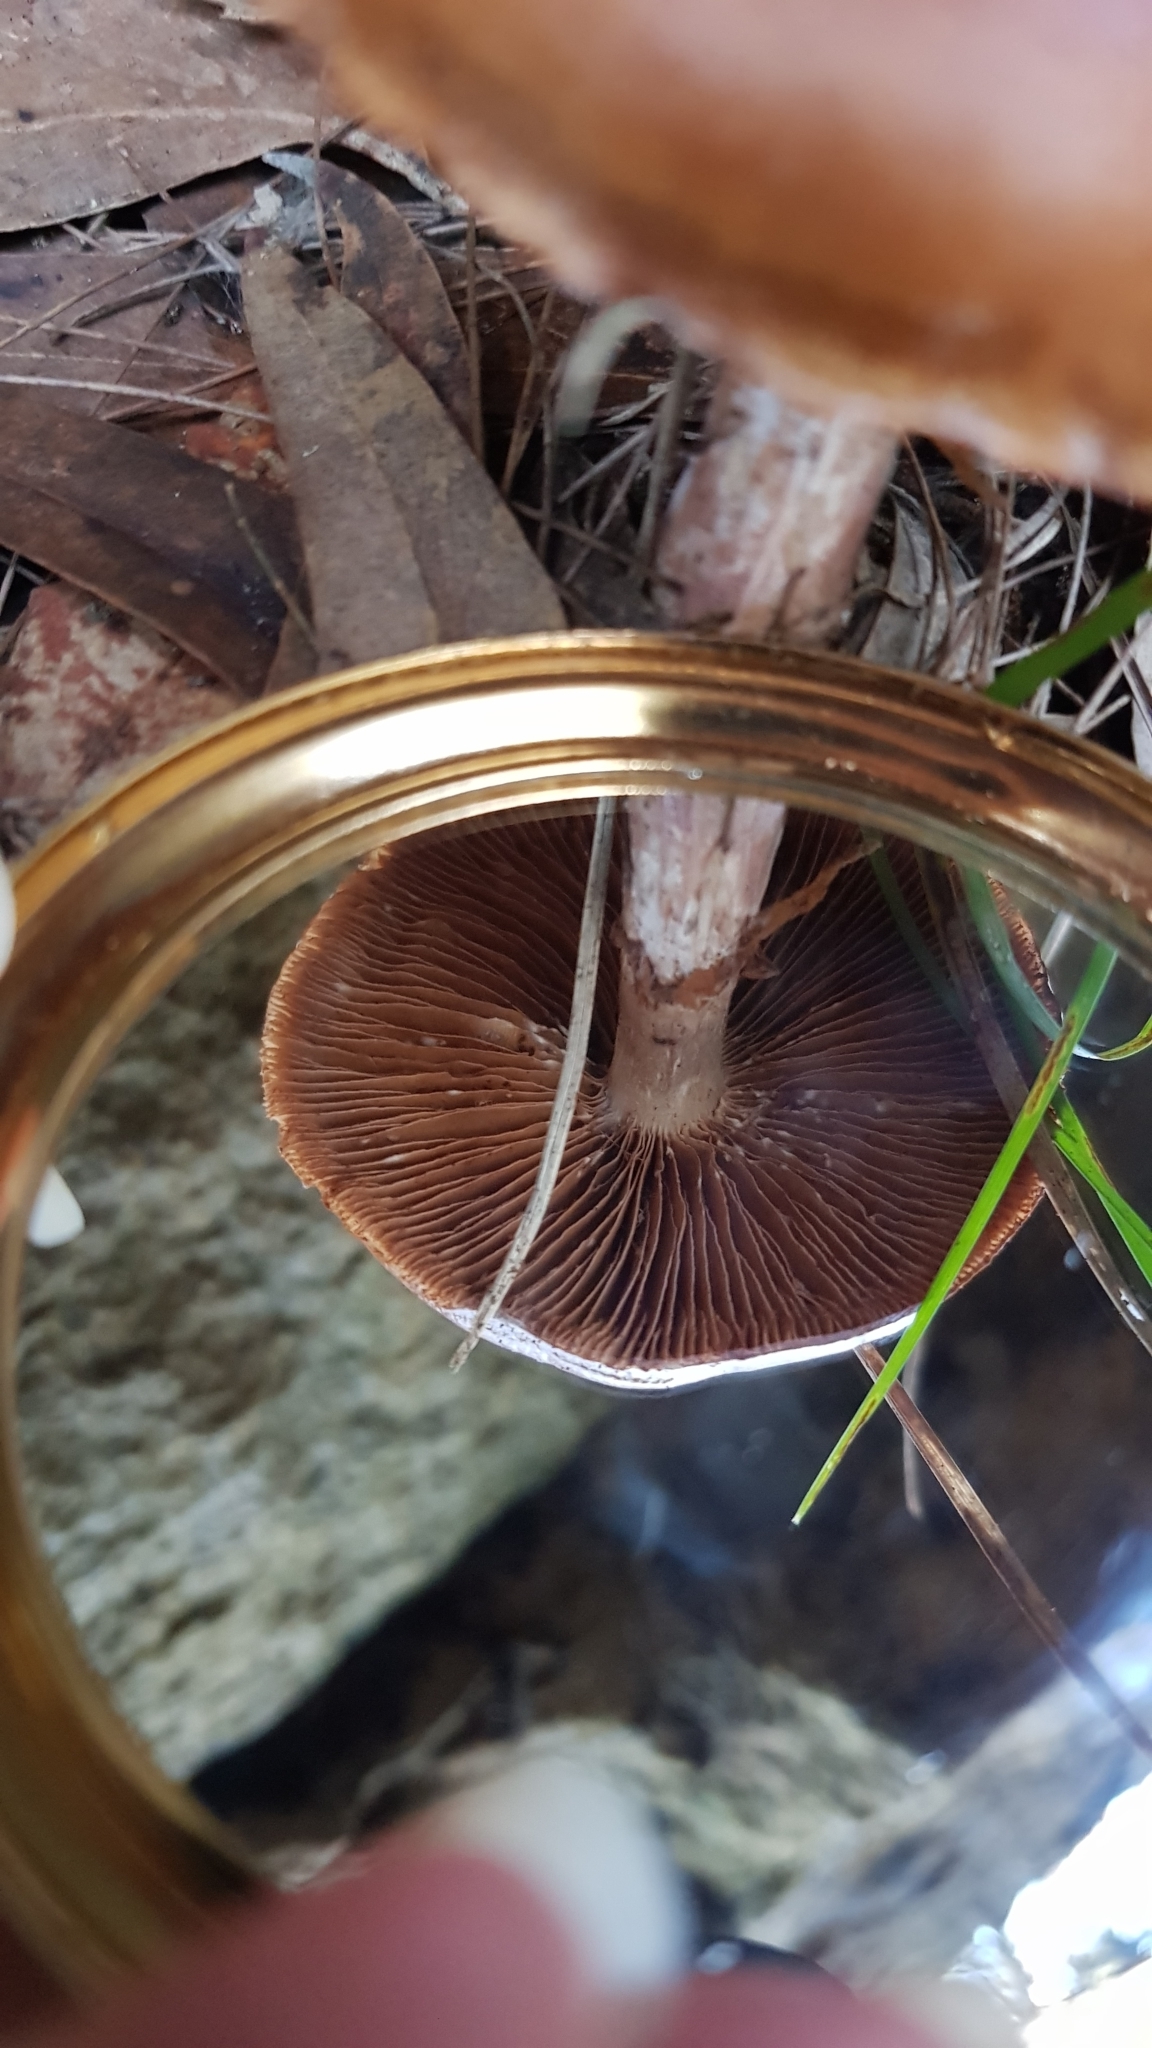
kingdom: Fungi
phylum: Basidiomycota
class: Agaricomycetes
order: Agaricales
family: Cortinariaceae
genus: Cortinarius
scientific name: Cortinarius archeri
